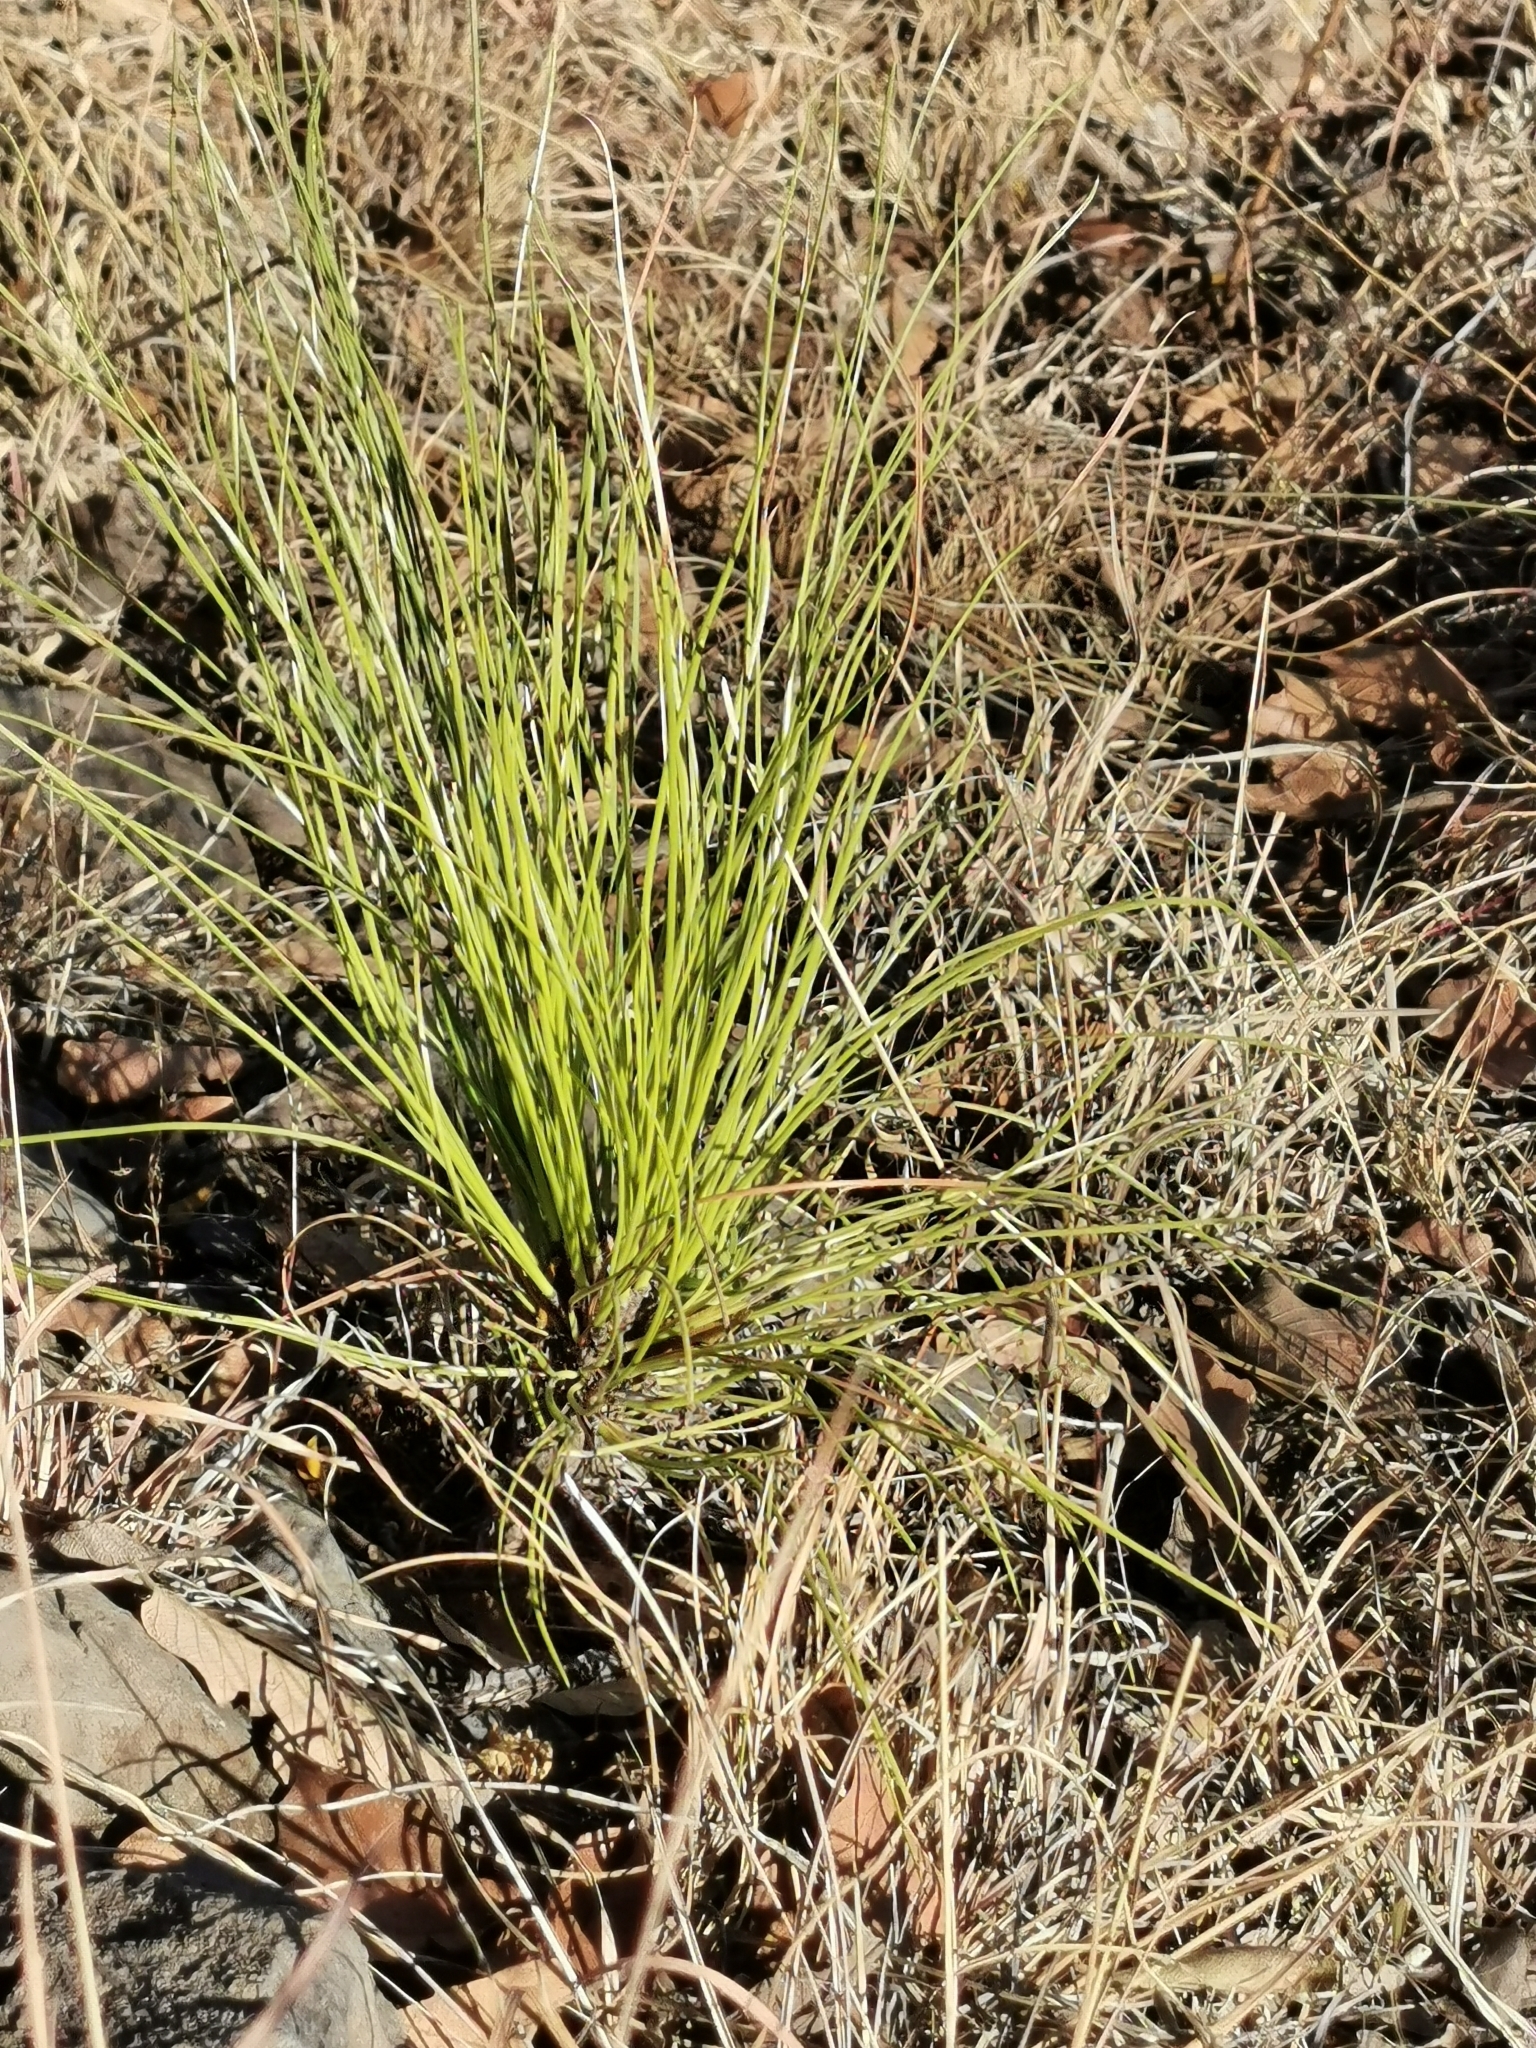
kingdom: Plantae
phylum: Tracheophyta
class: Pinopsida
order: Pinales
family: Pinaceae
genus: Pinus
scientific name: Pinus engelmannii
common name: Apache pine
